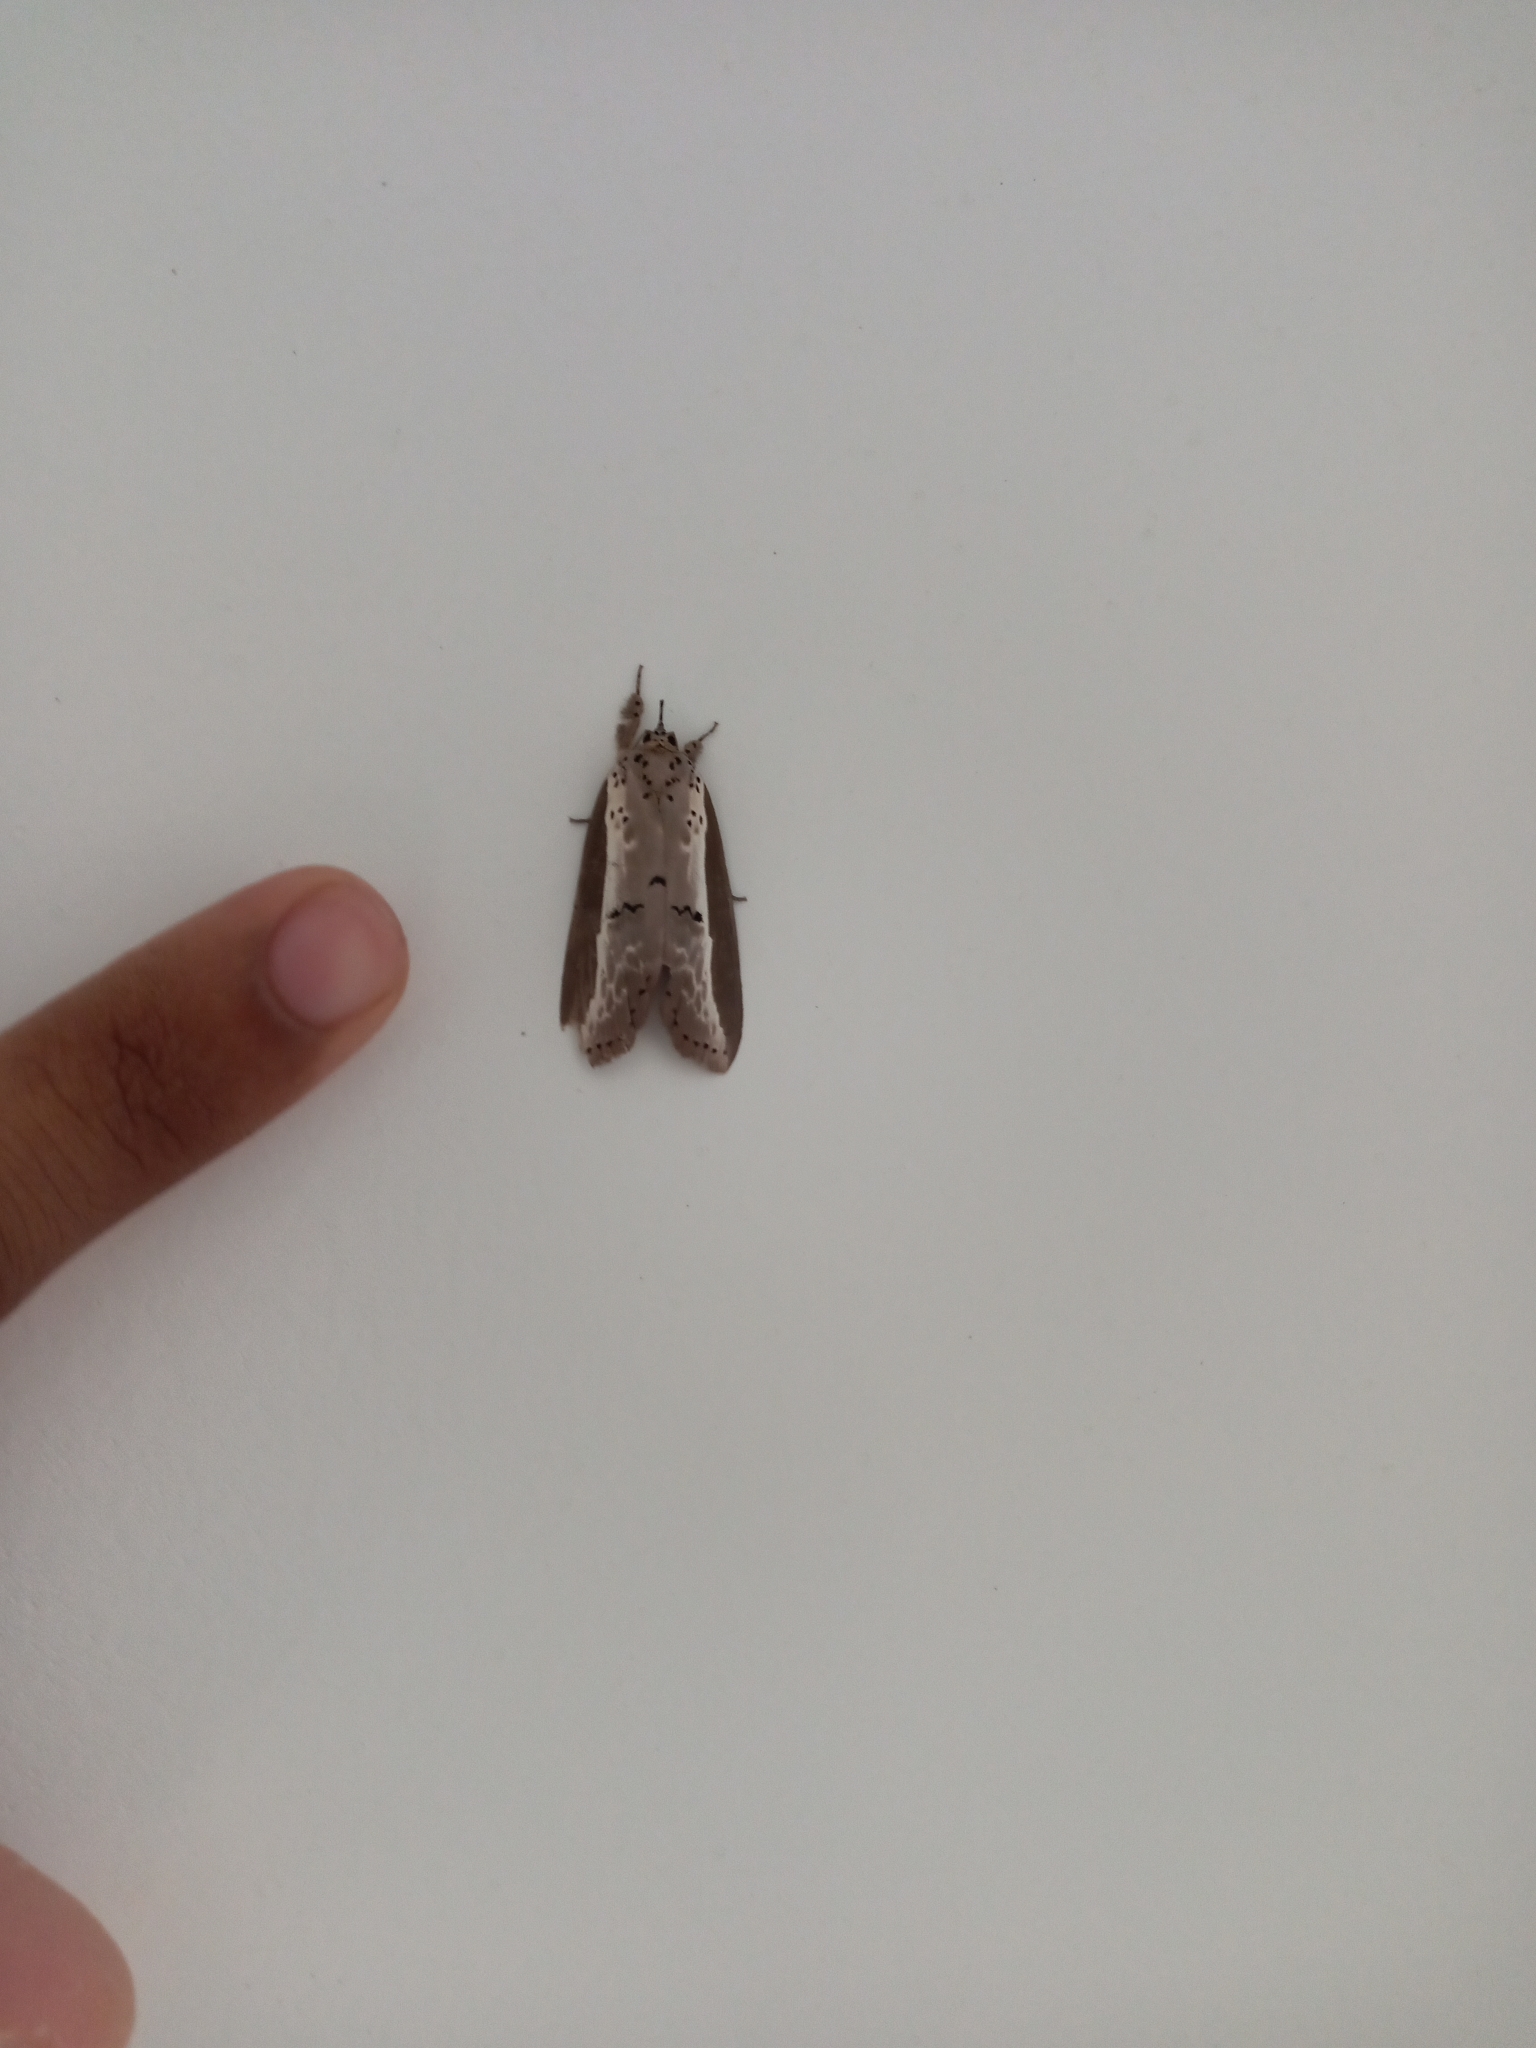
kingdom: Animalia
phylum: Arthropoda
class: Insecta
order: Lepidoptera
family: Nolidae
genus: Eligma
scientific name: Eligma narcissus
